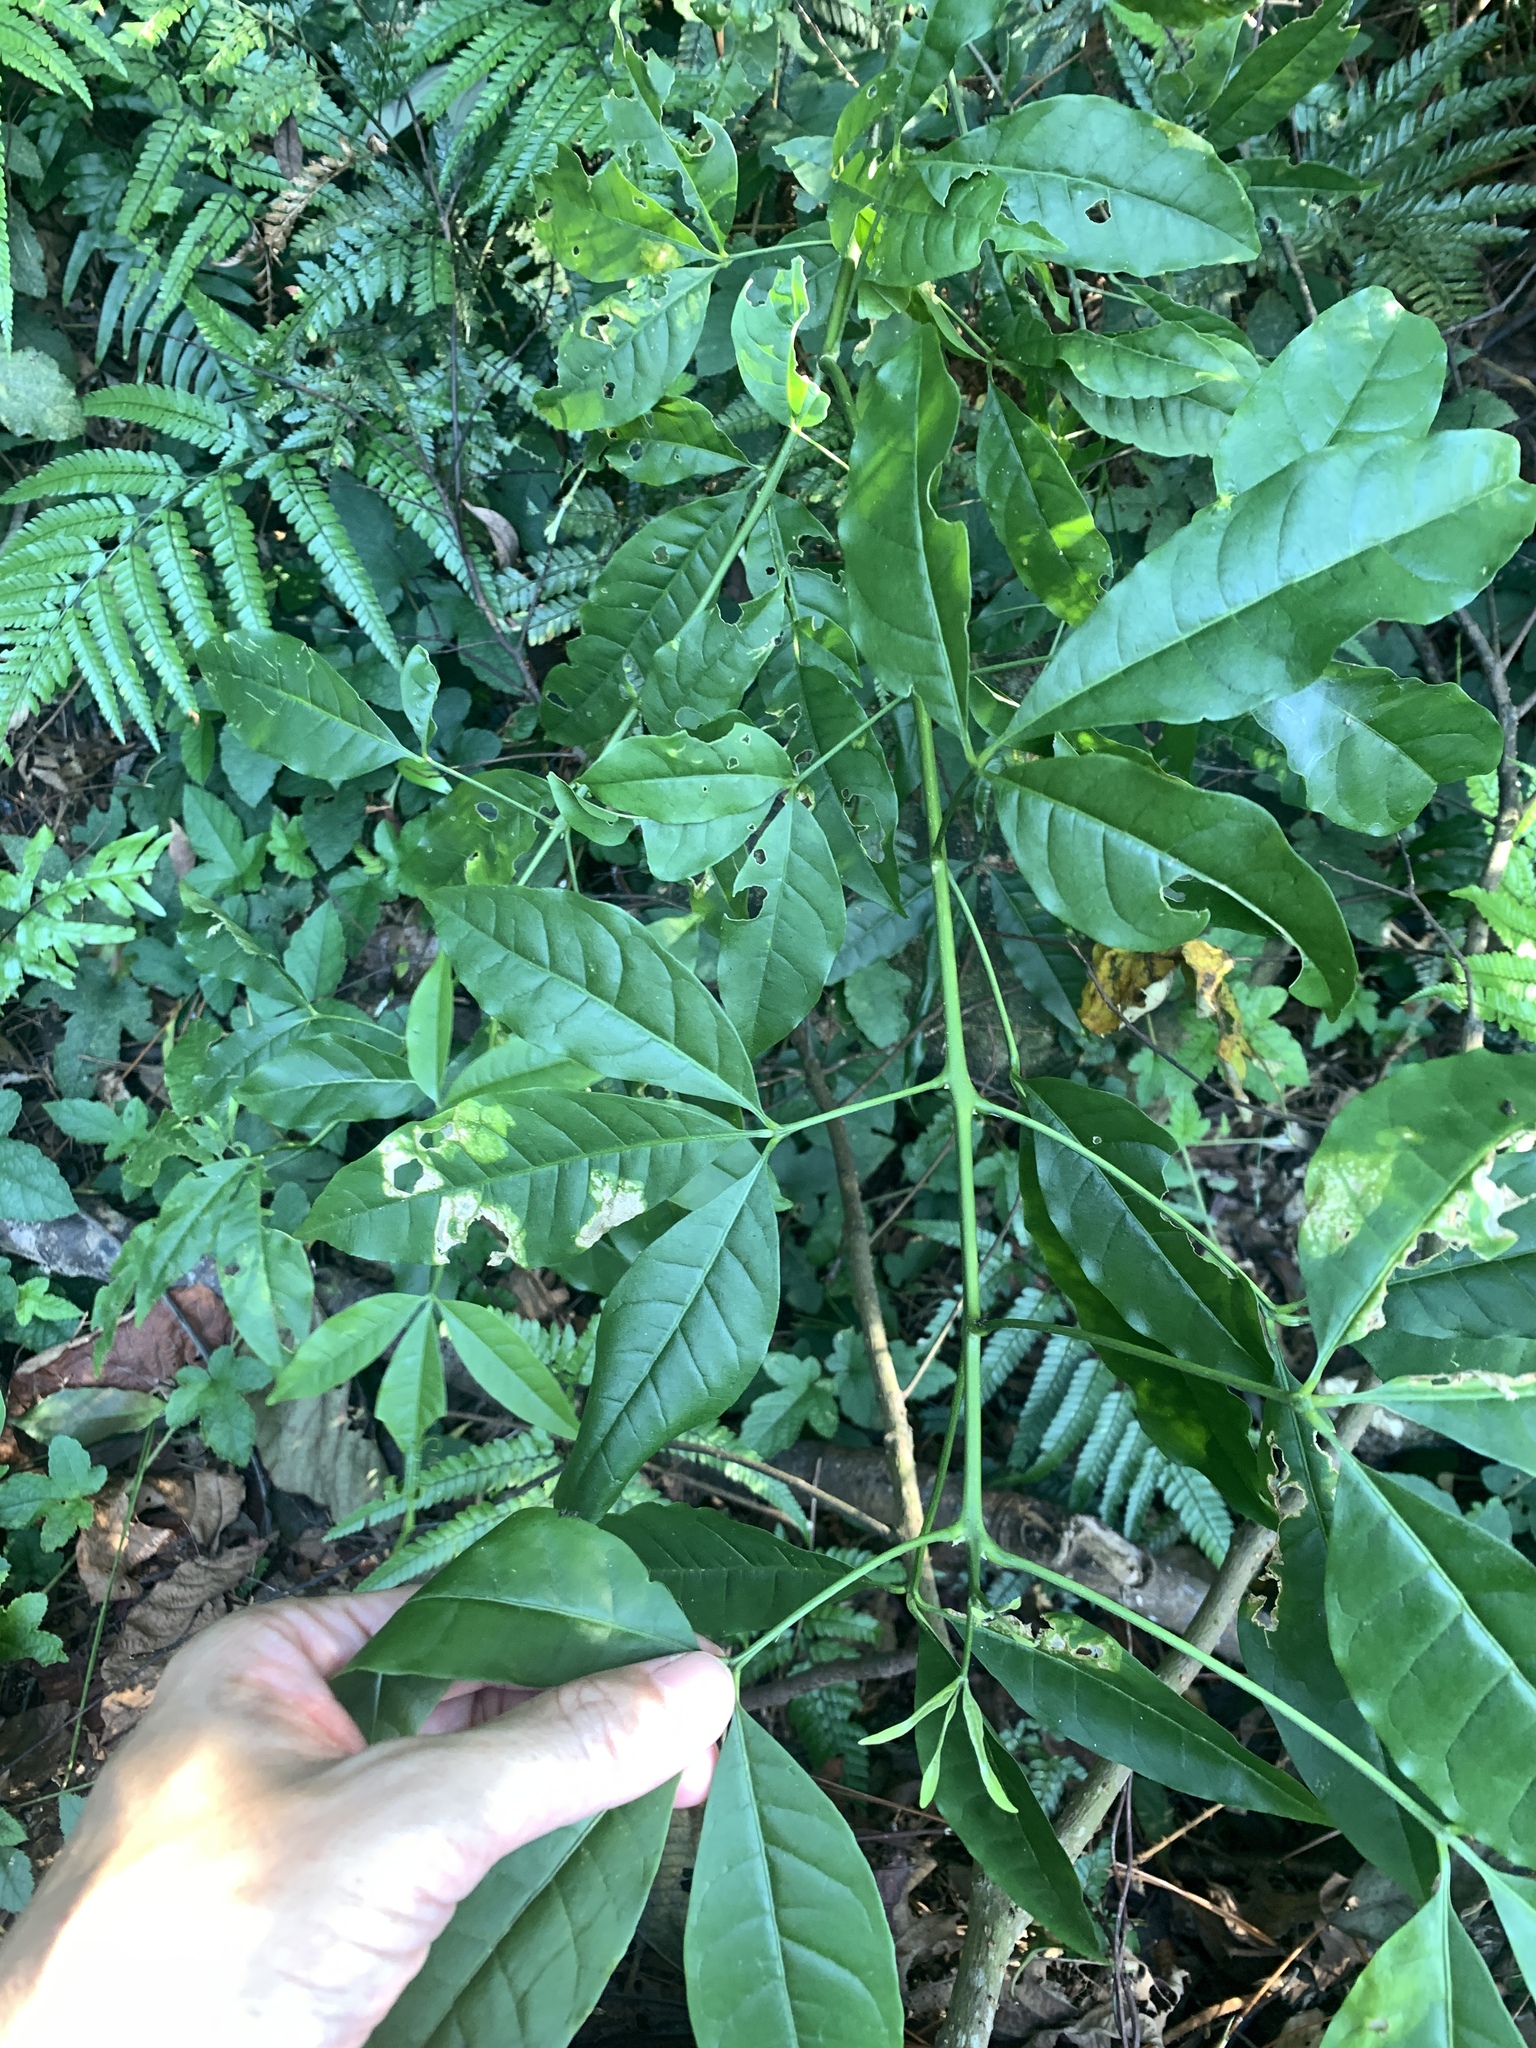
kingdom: Plantae
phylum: Tracheophyta
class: Magnoliopsida
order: Sapindales
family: Rutaceae
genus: Melicope
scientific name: Melicope pteleifolia
